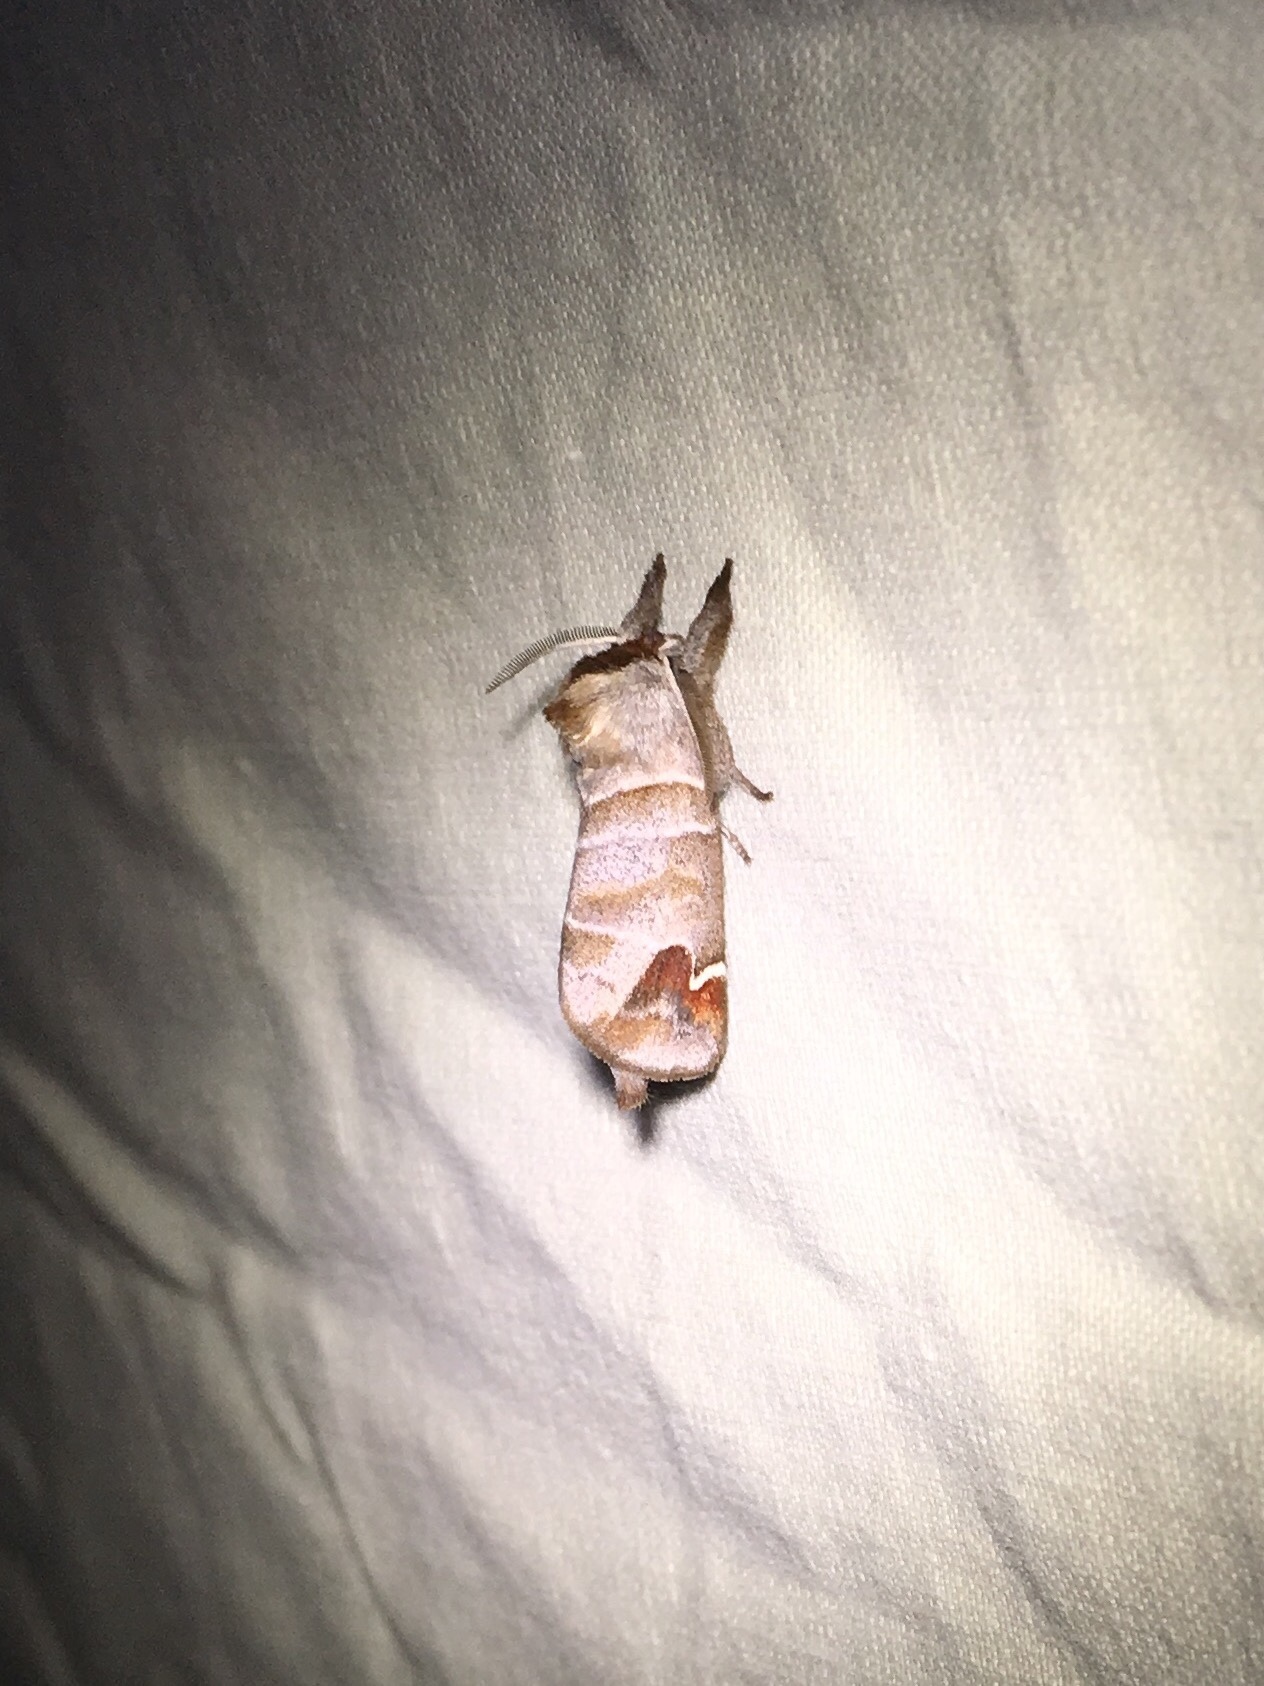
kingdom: Animalia
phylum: Arthropoda
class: Insecta
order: Lepidoptera
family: Notodontidae
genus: Clostera
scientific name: Clostera albosigma
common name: Sigmoid prominent
